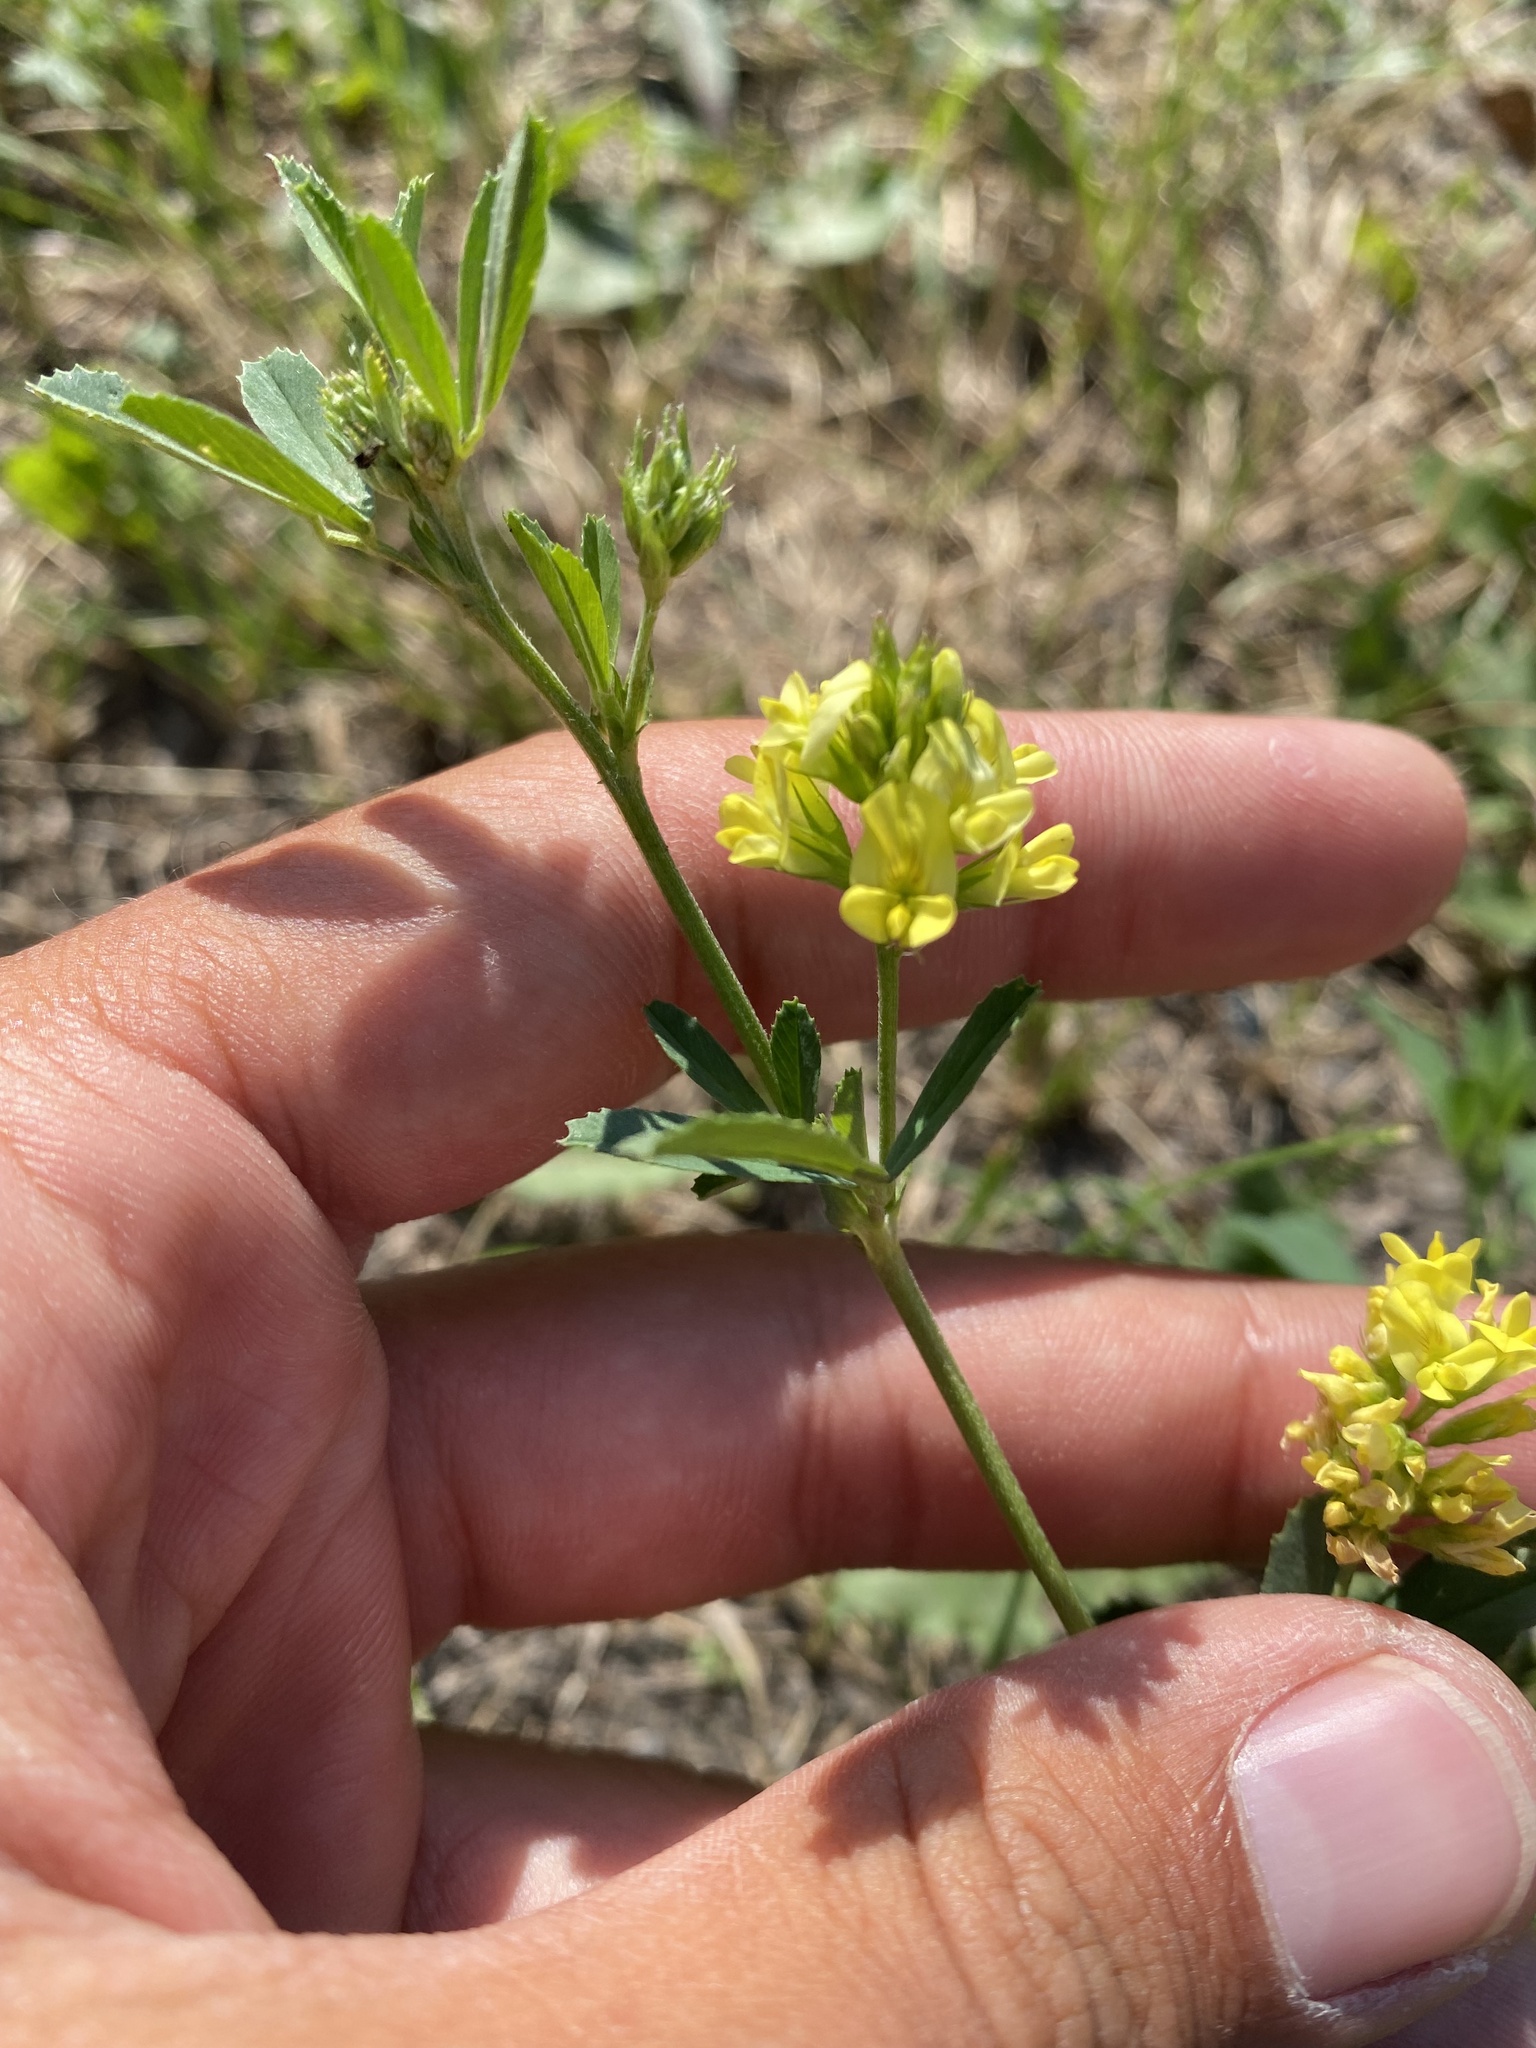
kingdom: Plantae
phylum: Tracheophyta
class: Magnoliopsida
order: Fabales
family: Fabaceae
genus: Medicago
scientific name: Medicago falcata
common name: Sickle medick
